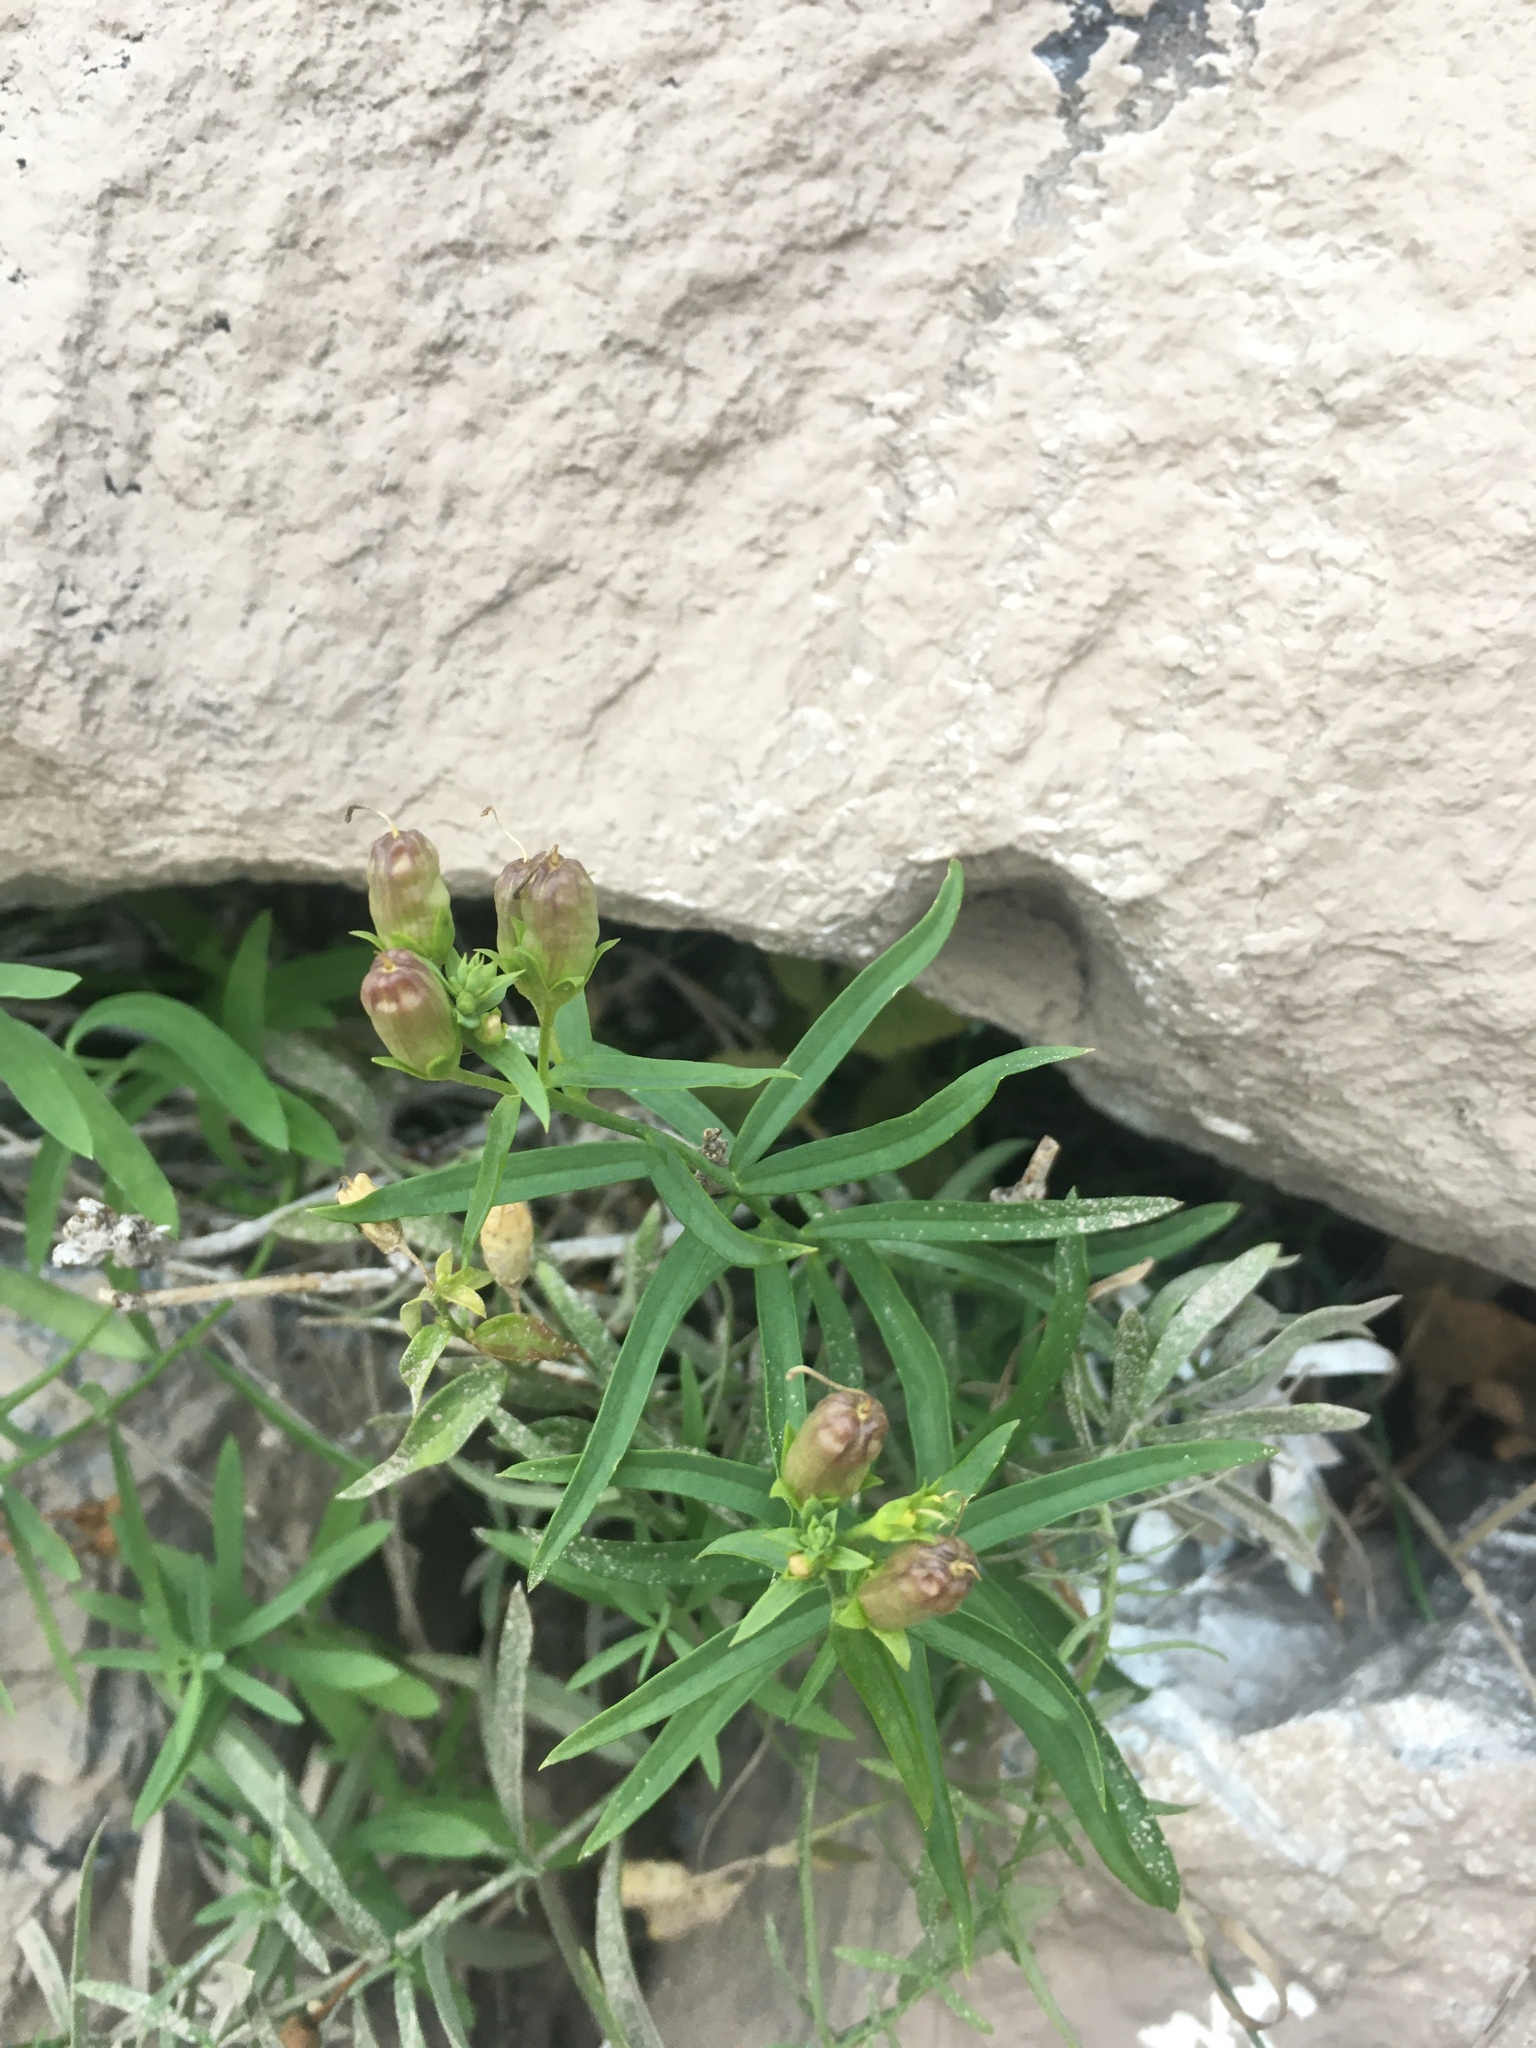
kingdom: Plantae
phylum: Tracheophyta
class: Magnoliopsida
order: Lamiales
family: Plantaginaceae
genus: Linaria
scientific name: Linaria vulgaris
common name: Butter and eggs
